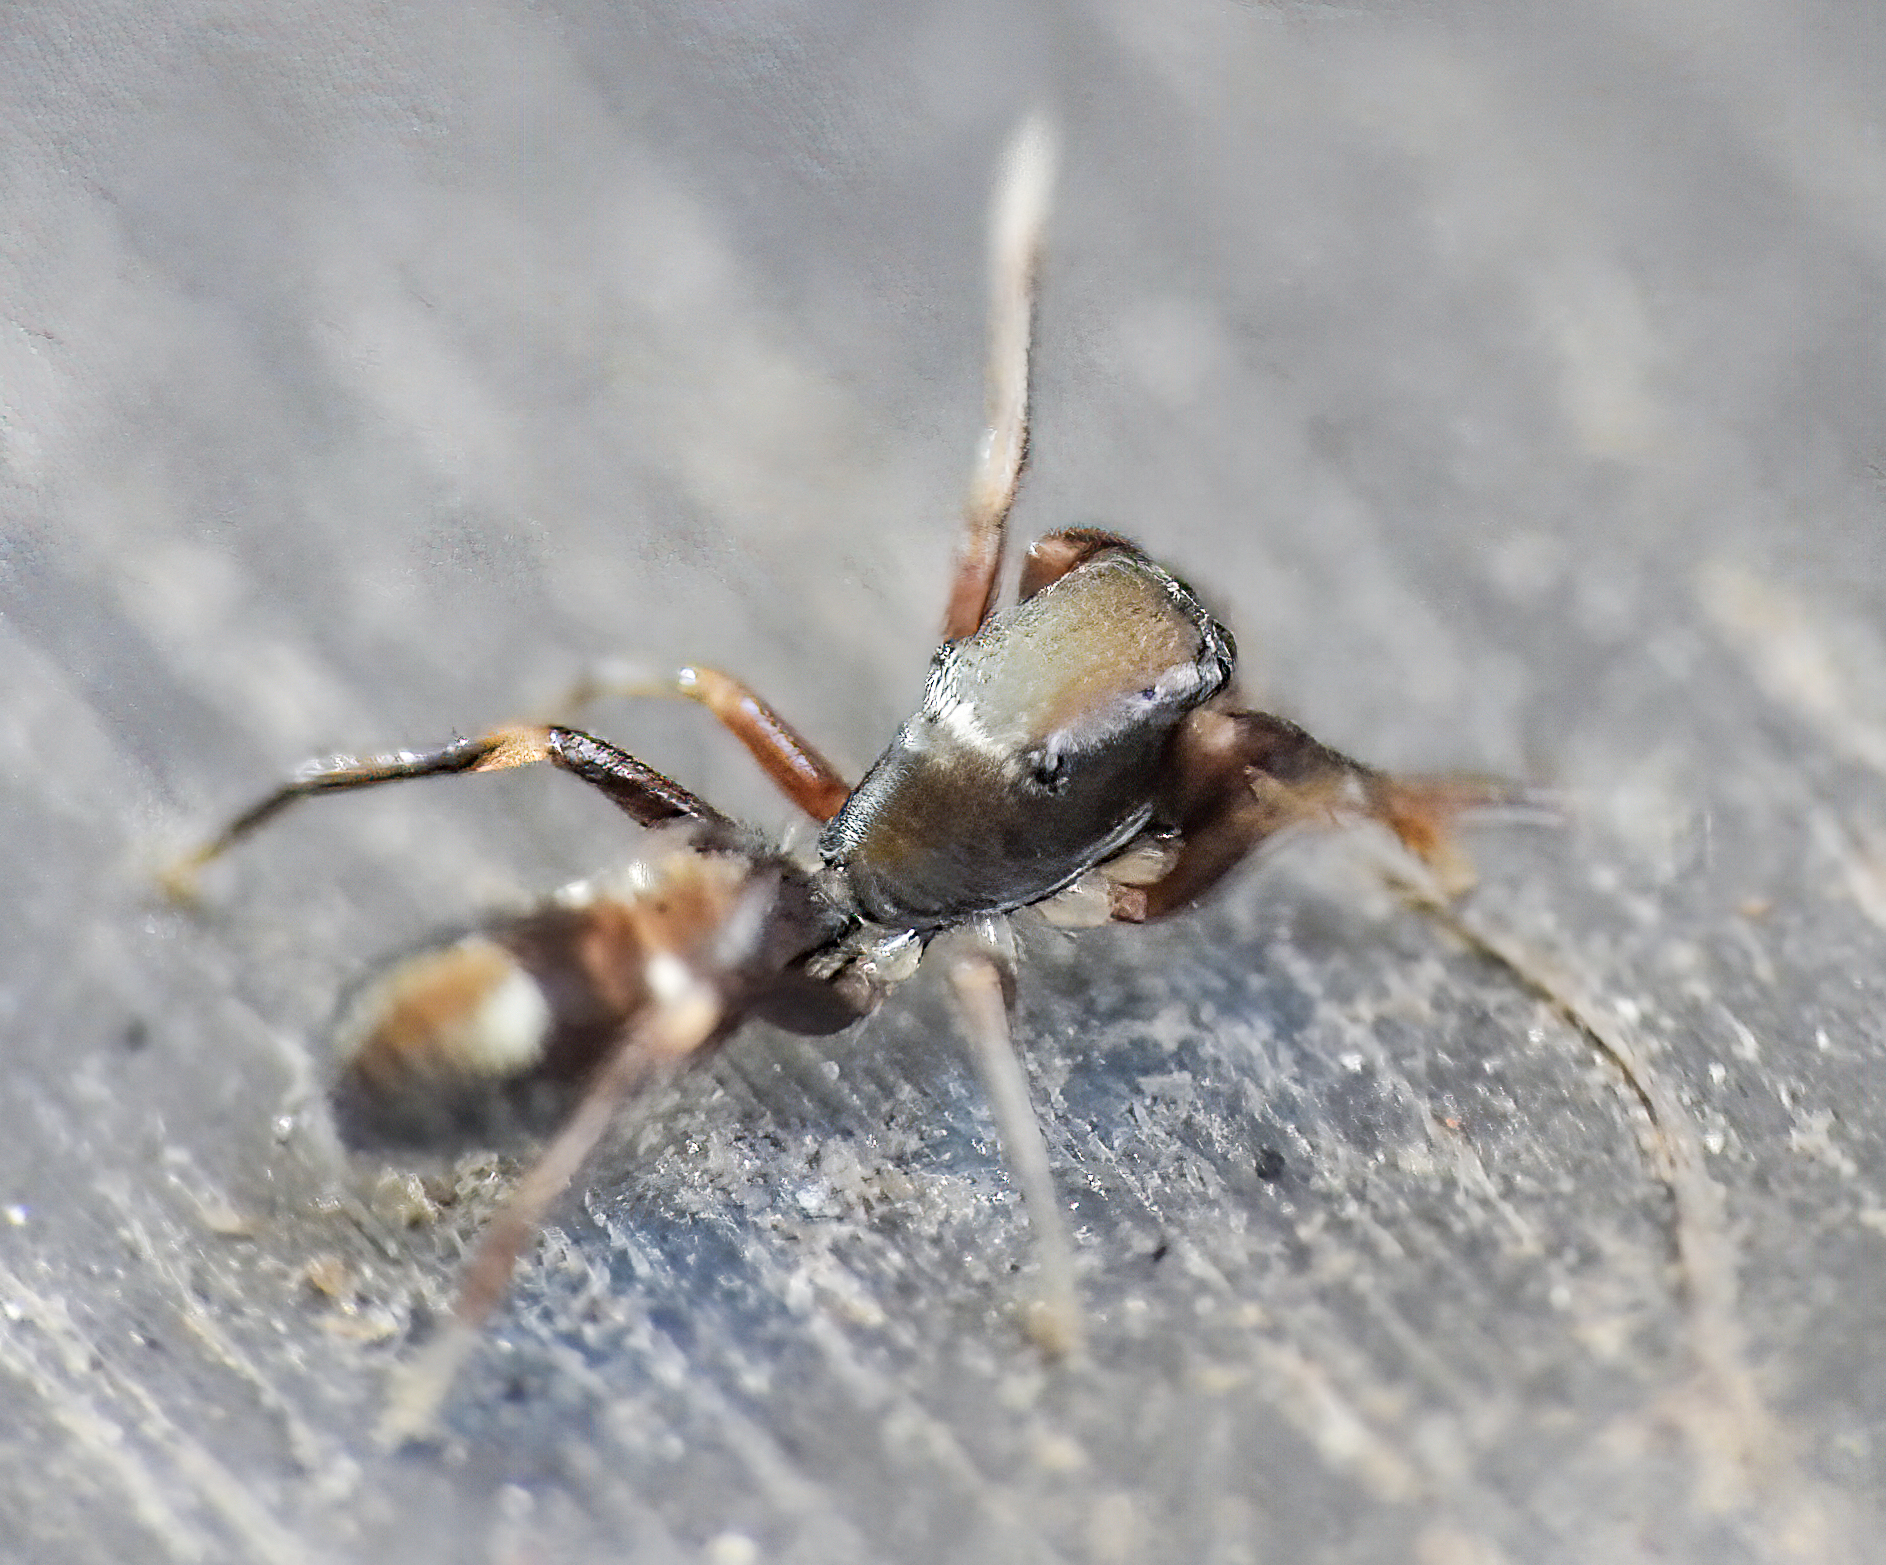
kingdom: Animalia
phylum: Arthropoda
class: Arachnida
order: Araneae
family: Salticidae
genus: Synageles
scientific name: Synageles venator
